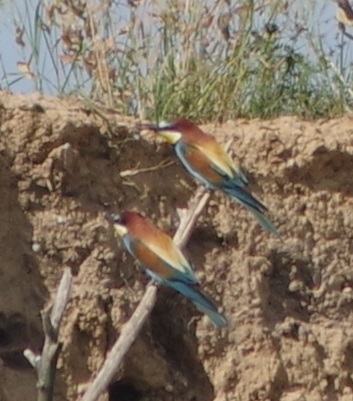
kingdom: Animalia
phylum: Chordata
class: Aves
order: Coraciiformes
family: Meropidae
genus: Merops
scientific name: Merops apiaster
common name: European bee-eater
